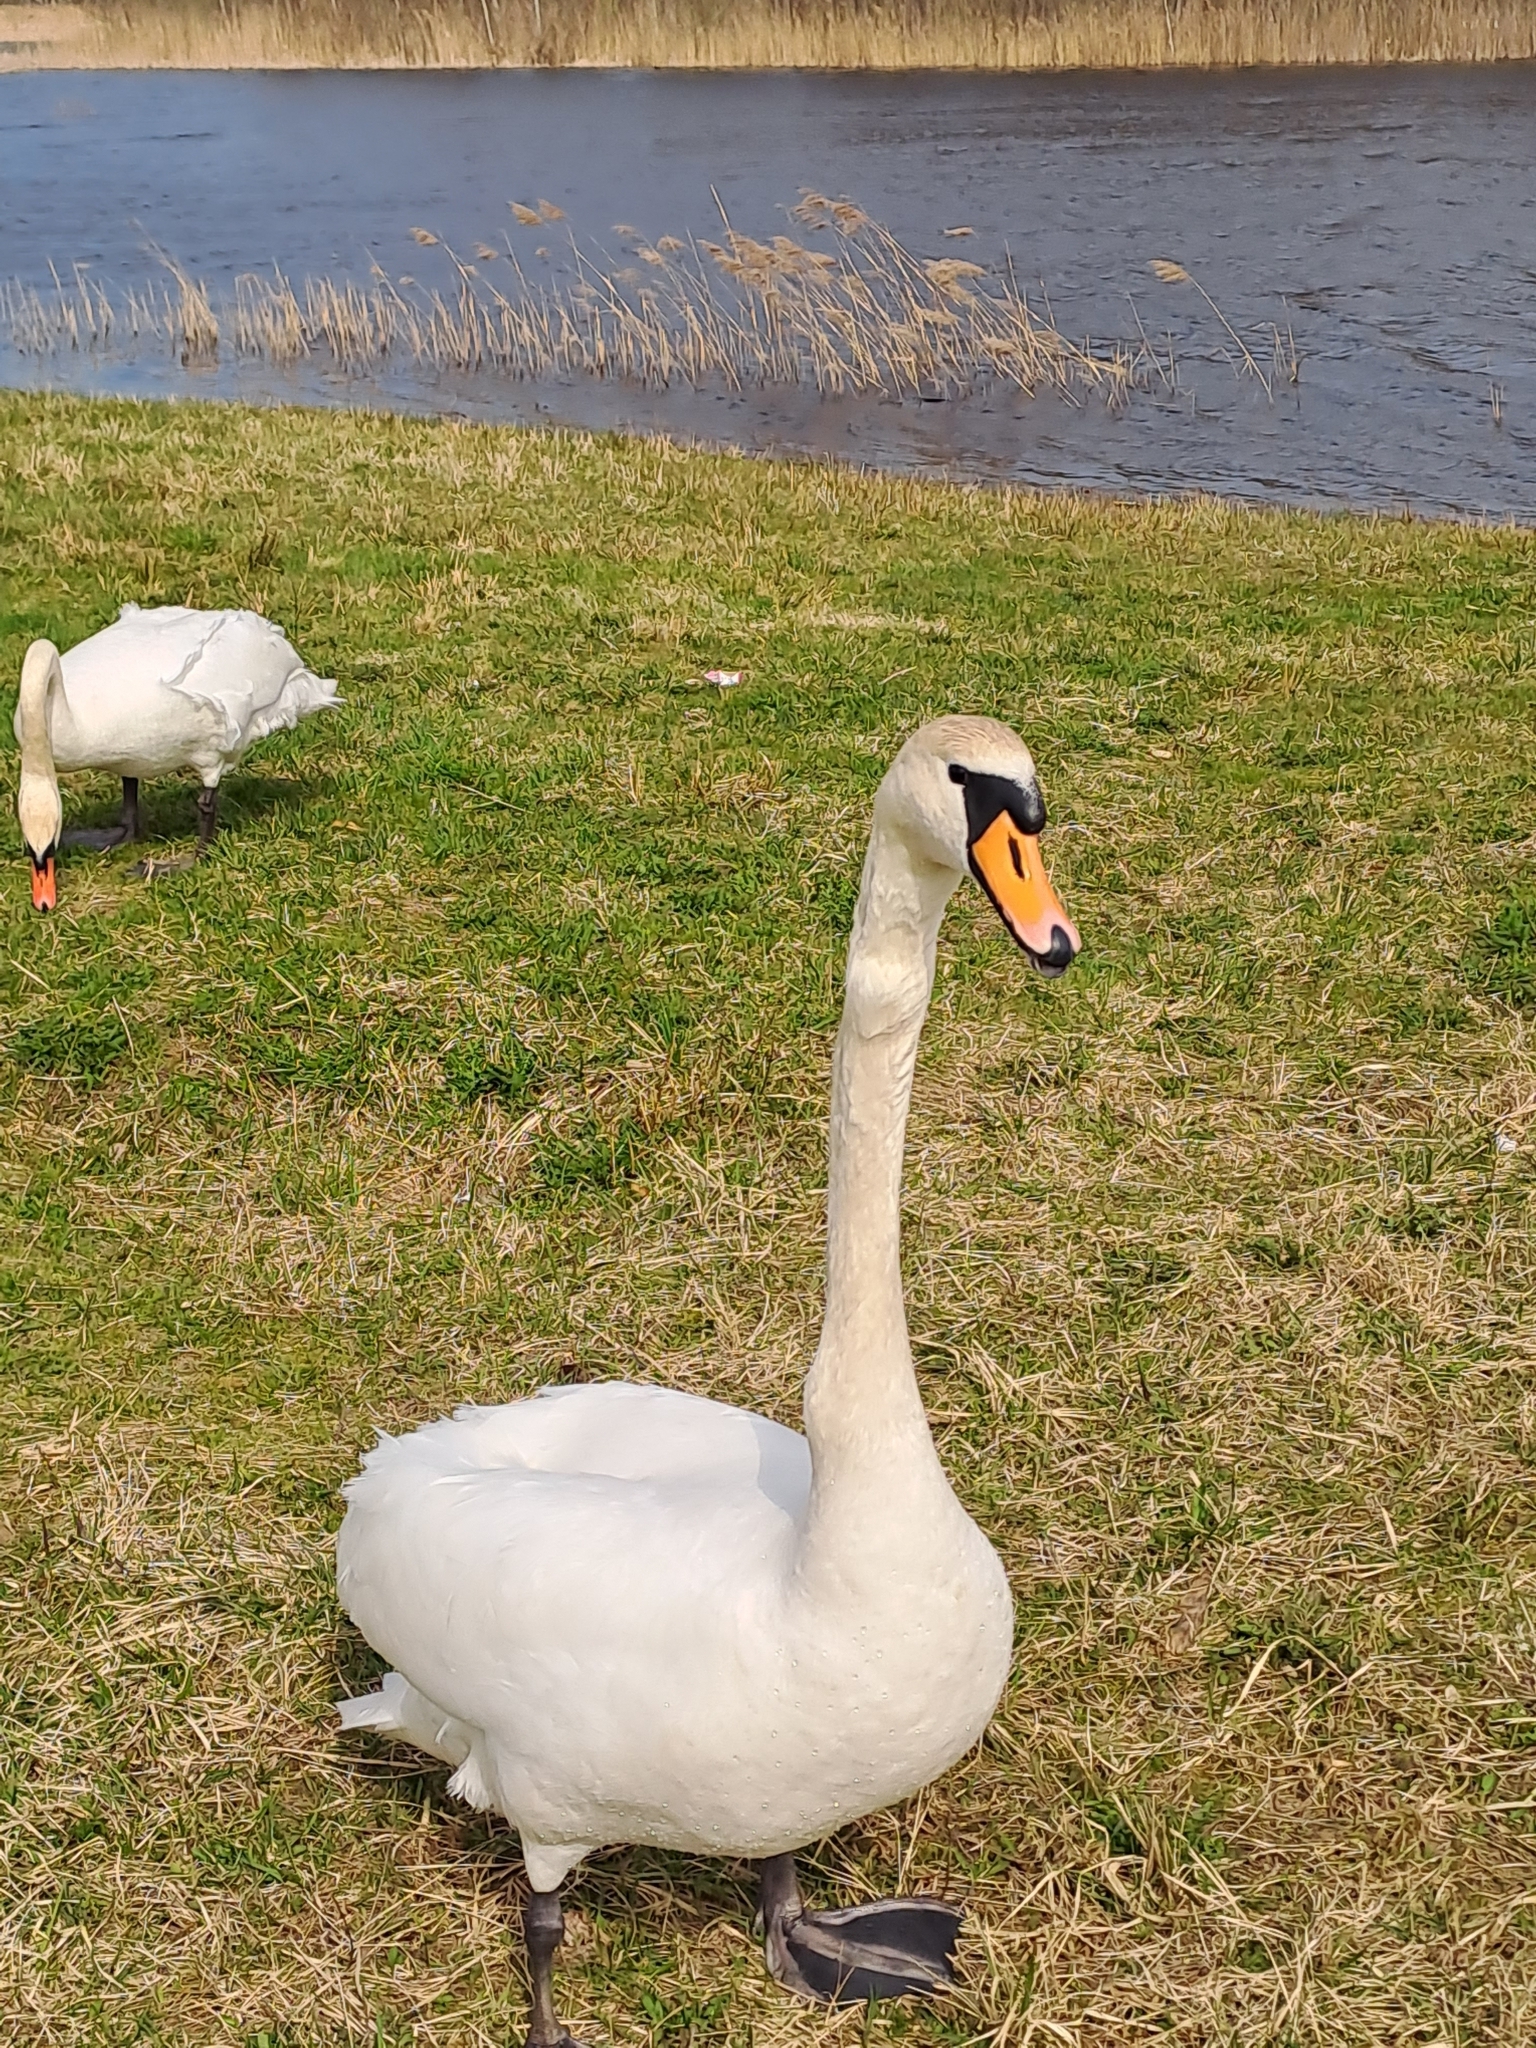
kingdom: Animalia
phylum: Chordata
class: Aves
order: Anseriformes
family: Anatidae
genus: Cygnus
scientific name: Cygnus olor
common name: Mute swan
